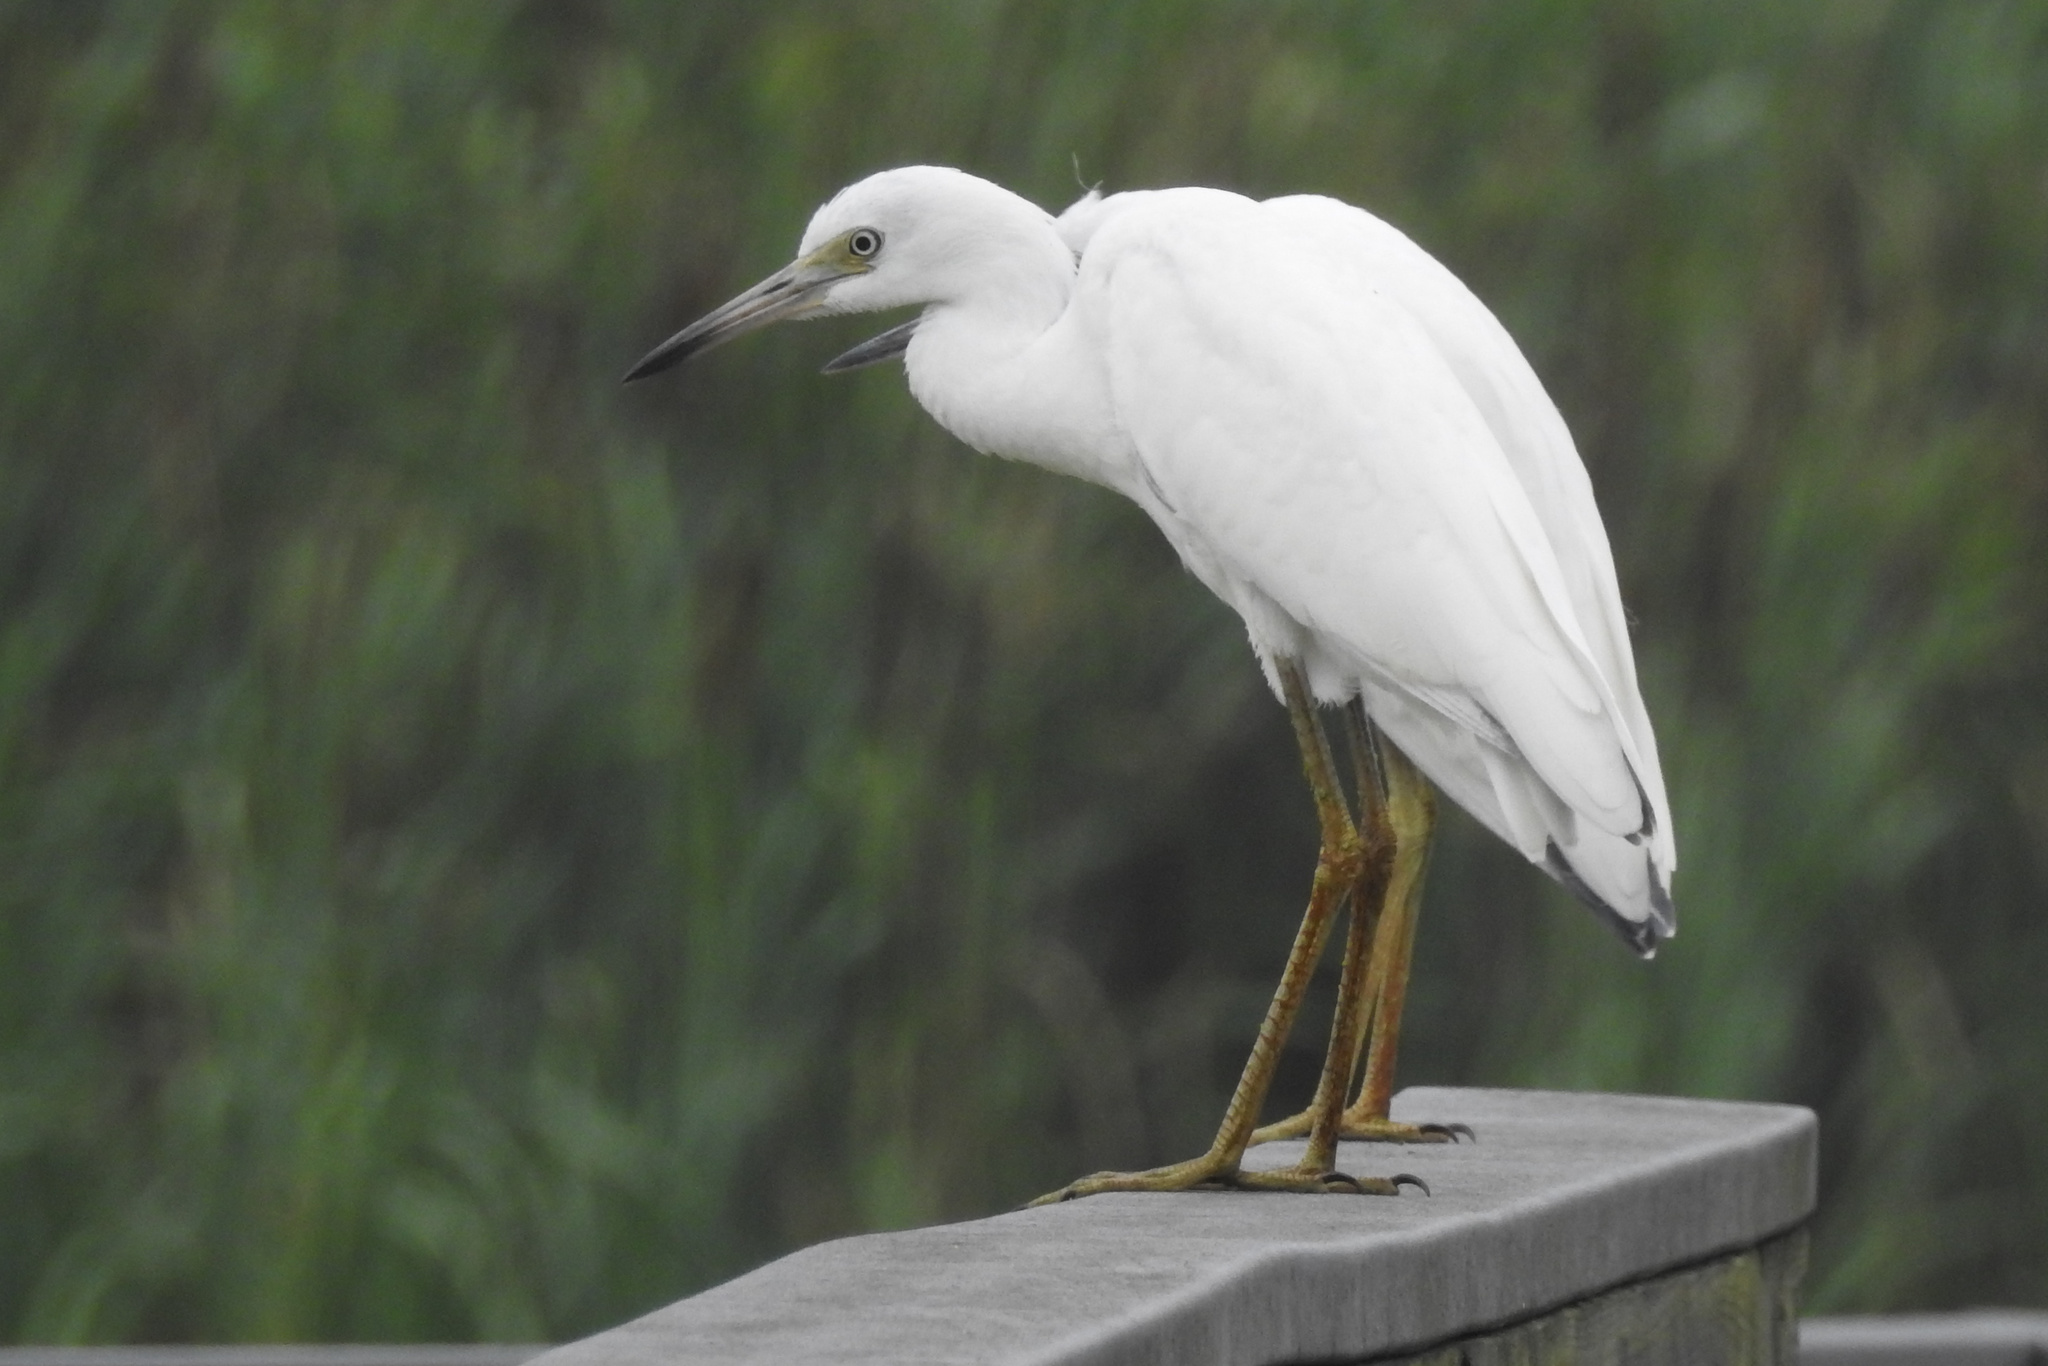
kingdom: Animalia
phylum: Chordata
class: Aves
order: Pelecaniformes
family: Ardeidae
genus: Egretta
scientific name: Egretta caerulea
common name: Little blue heron
